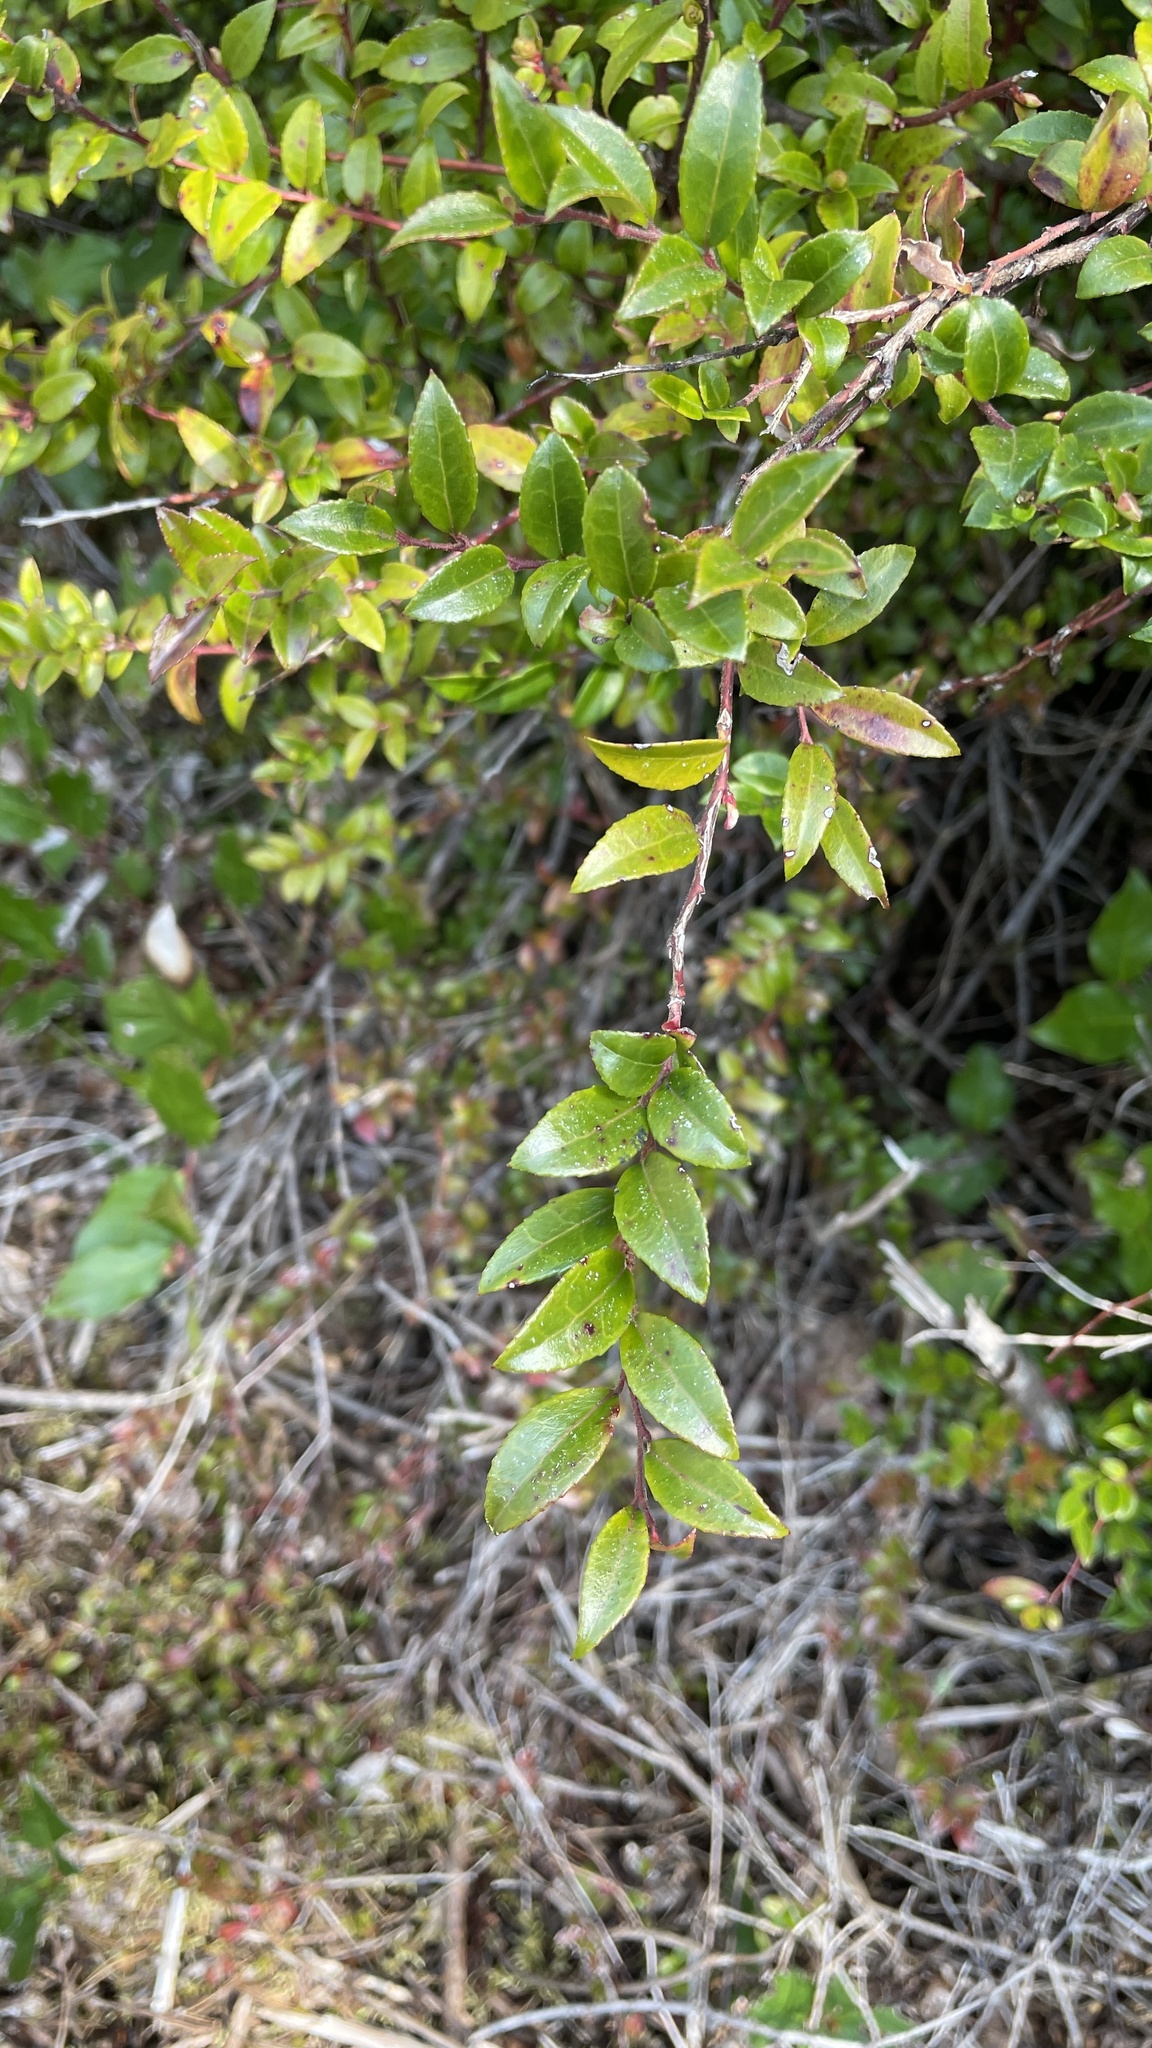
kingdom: Plantae
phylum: Tracheophyta
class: Magnoliopsida
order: Ericales
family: Ericaceae
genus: Vaccinium
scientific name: Vaccinium ovatum
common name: California-huckleberry
